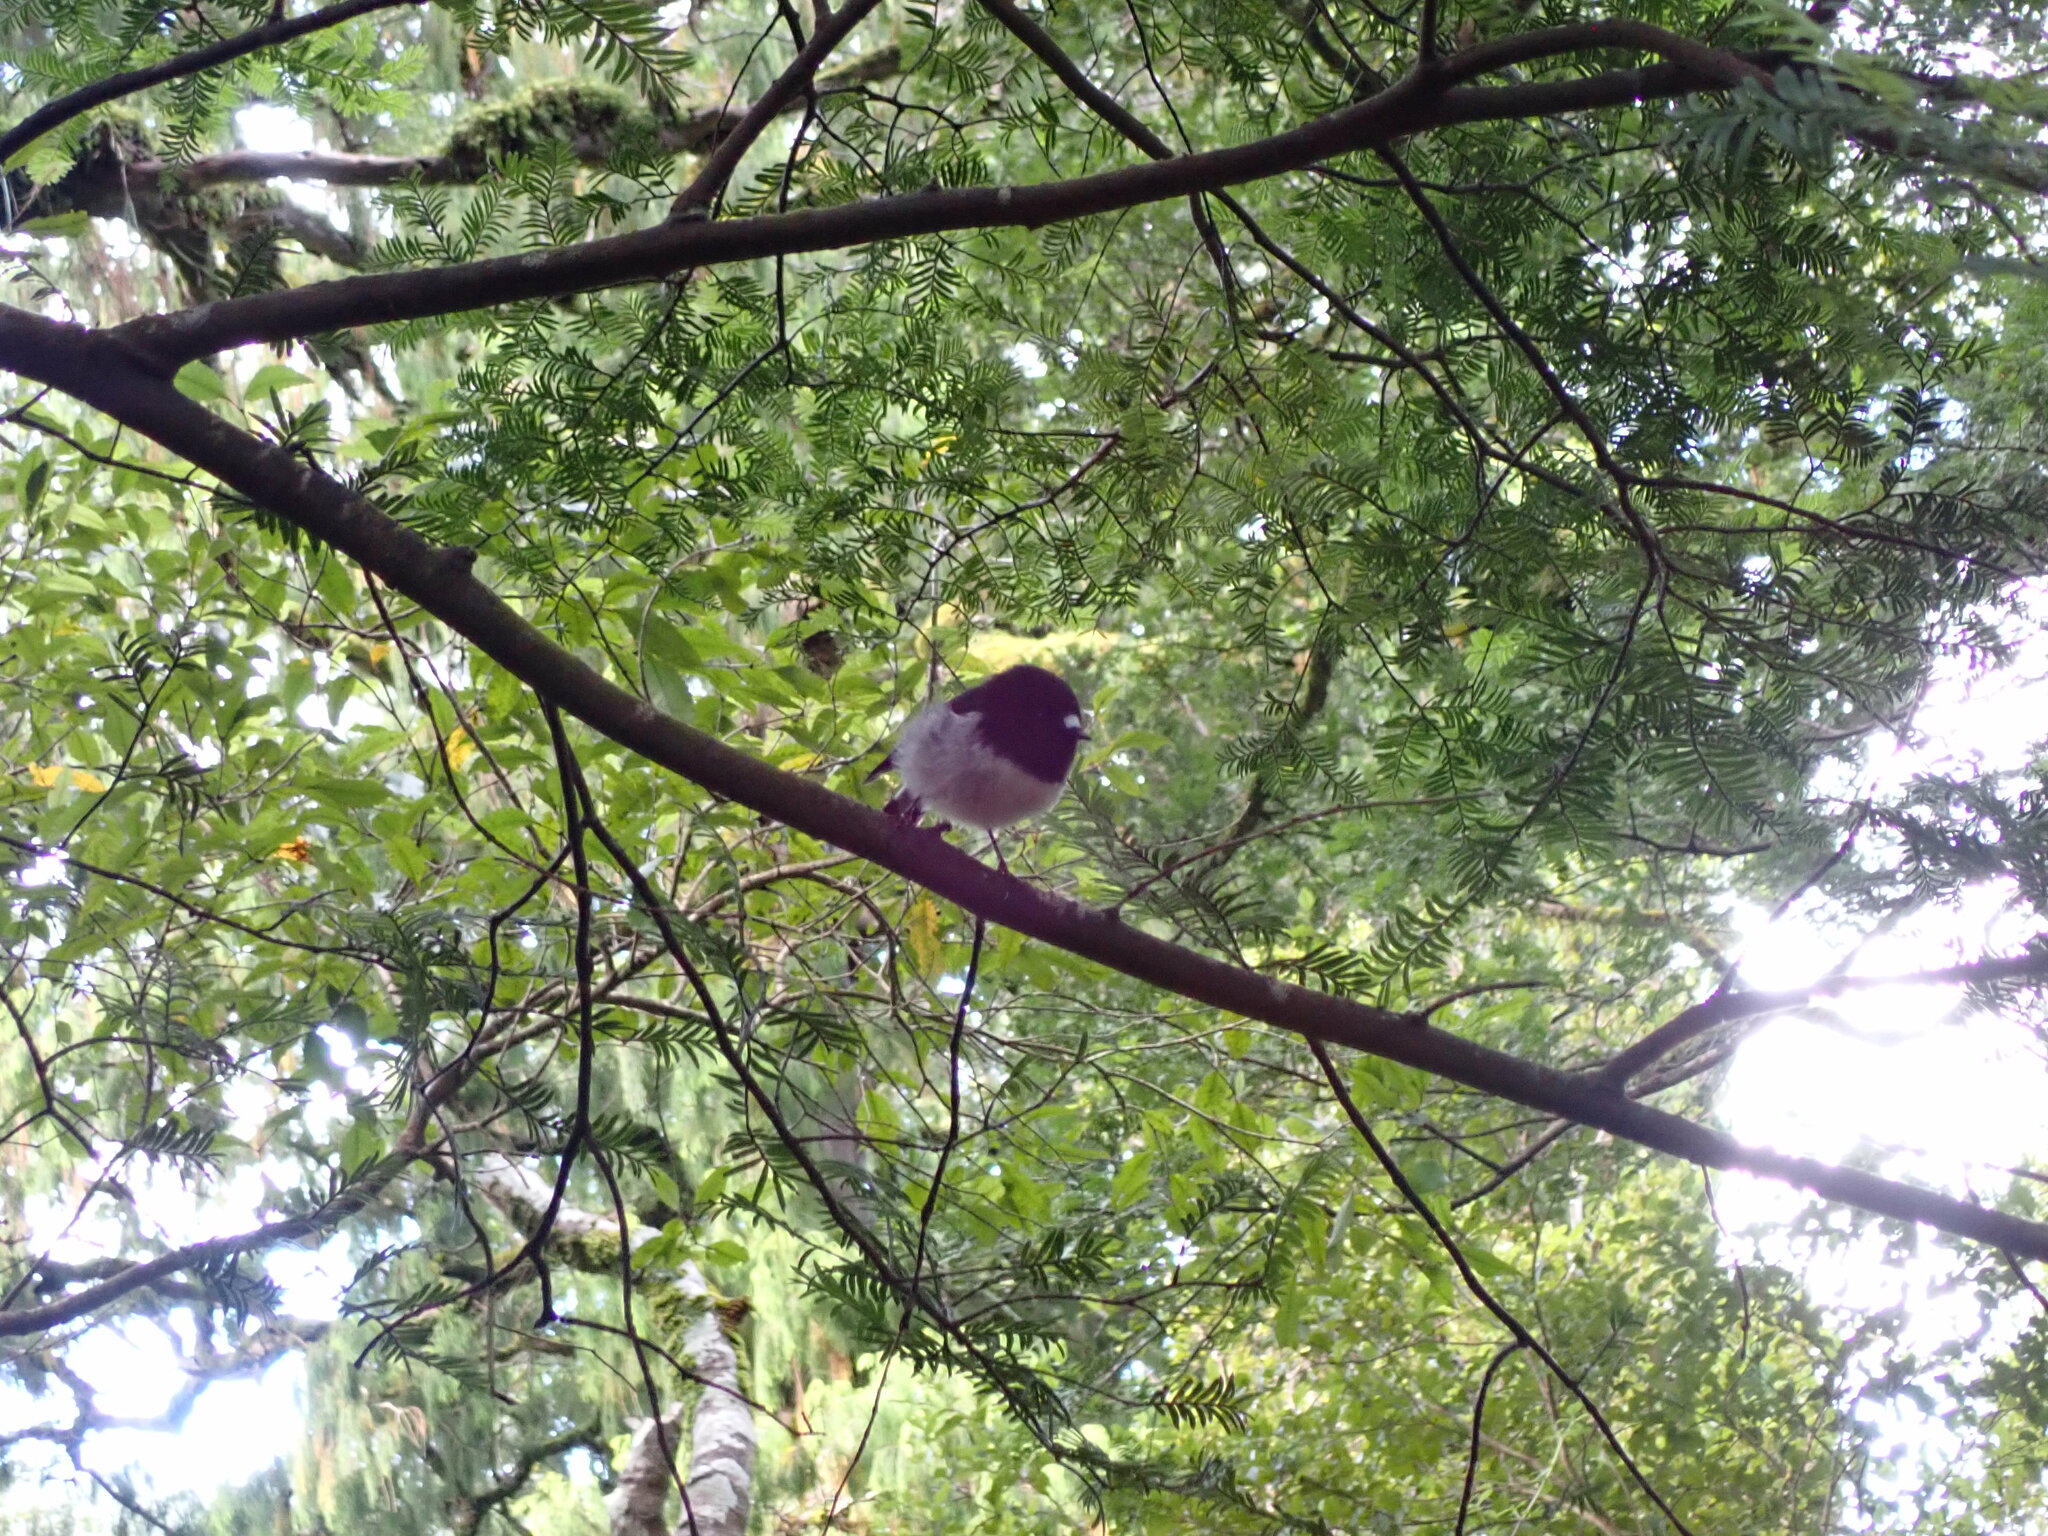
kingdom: Animalia
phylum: Chordata
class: Aves
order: Passeriformes
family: Petroicidae
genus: Petroica
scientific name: Petroica macrocephala
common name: Tomtit
